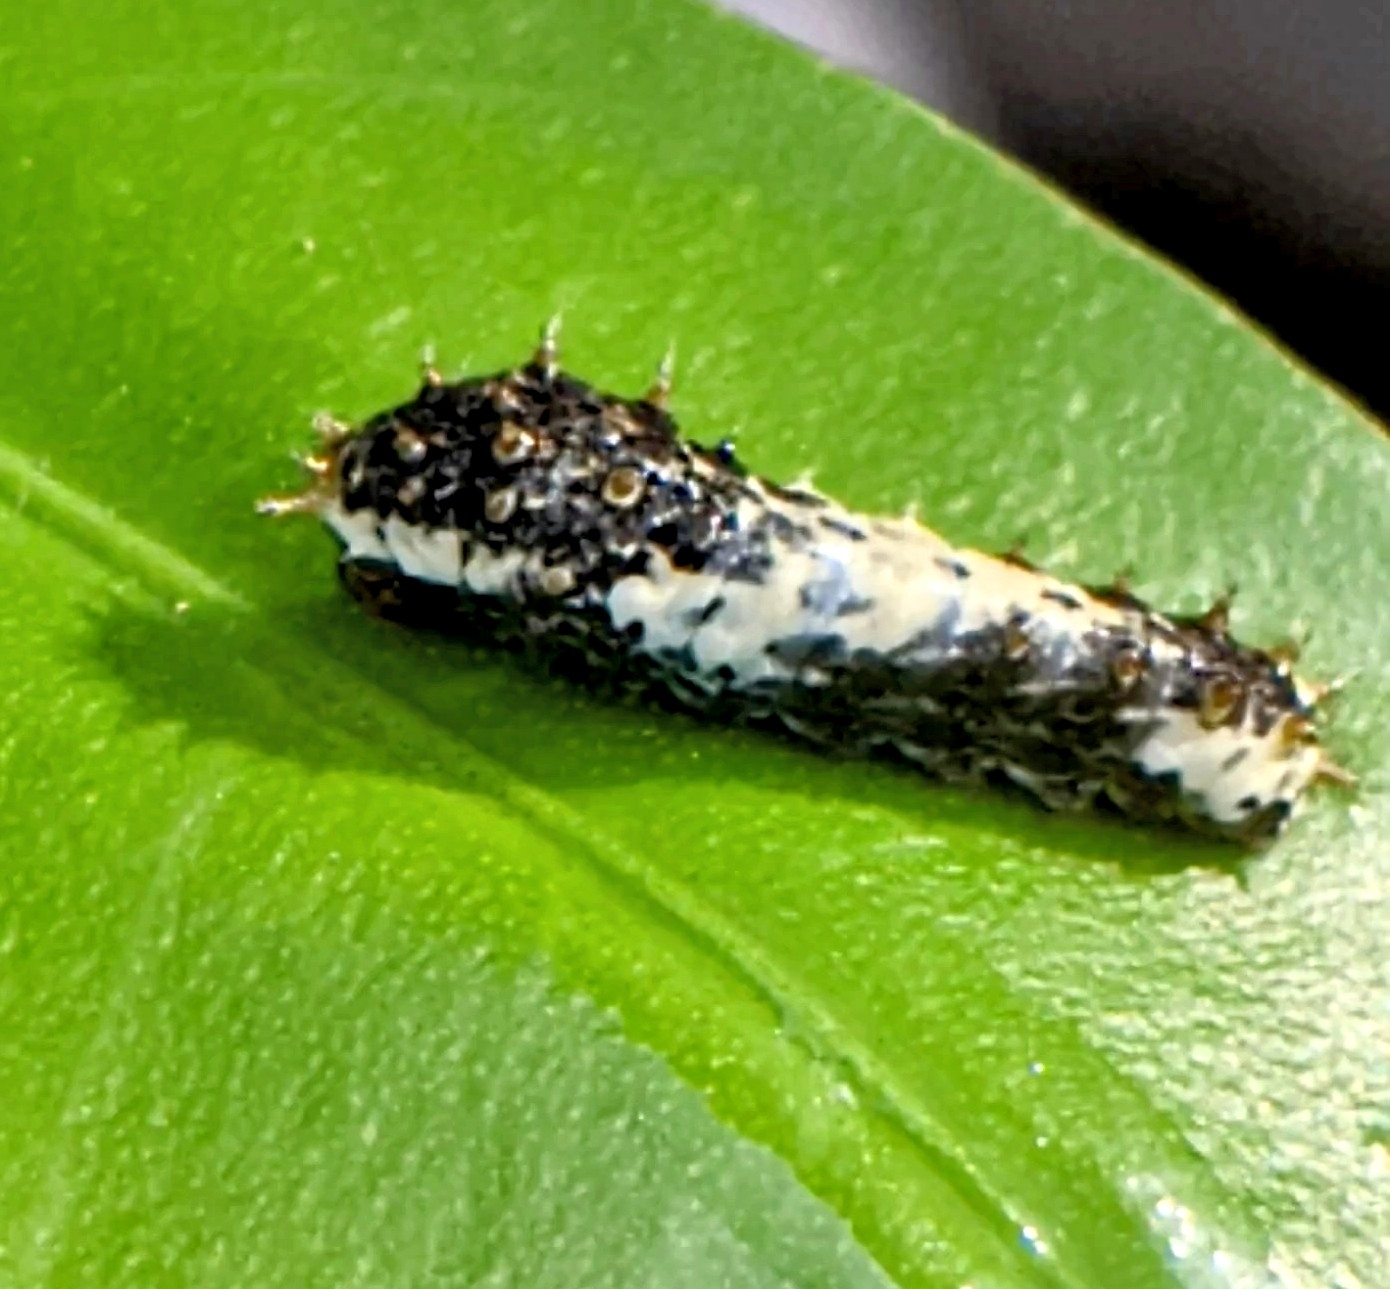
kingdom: Animalia
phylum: Arthropoda
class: Insecta
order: Lepidoptera
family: Papilionidae
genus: Papilio
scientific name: Papilio demoleus
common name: Lime butterfly
